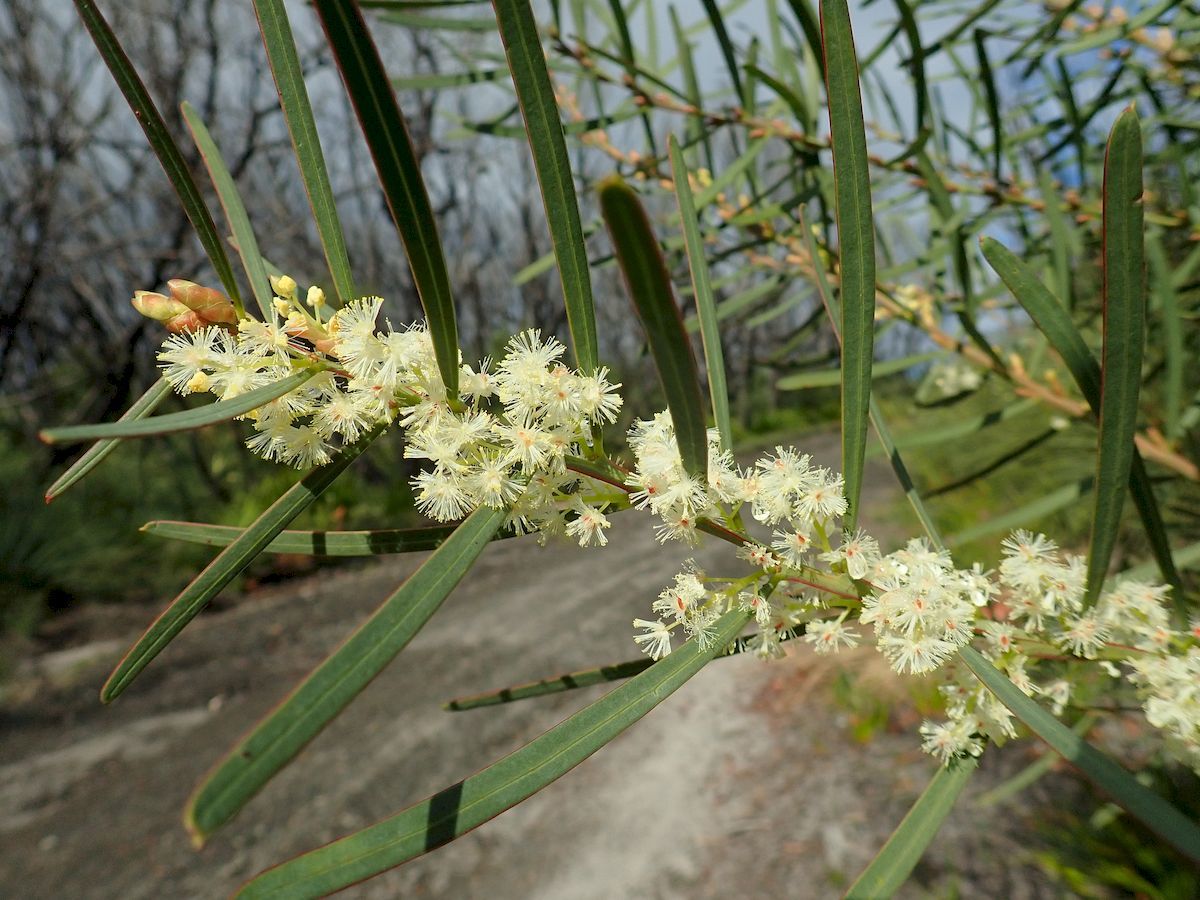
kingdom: Plantae
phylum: Tracheophyta
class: Magnoliopsida
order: Fabales
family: Fabaceae
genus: Acacia
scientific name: Acacia suaveolens
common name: Sweet acacia
